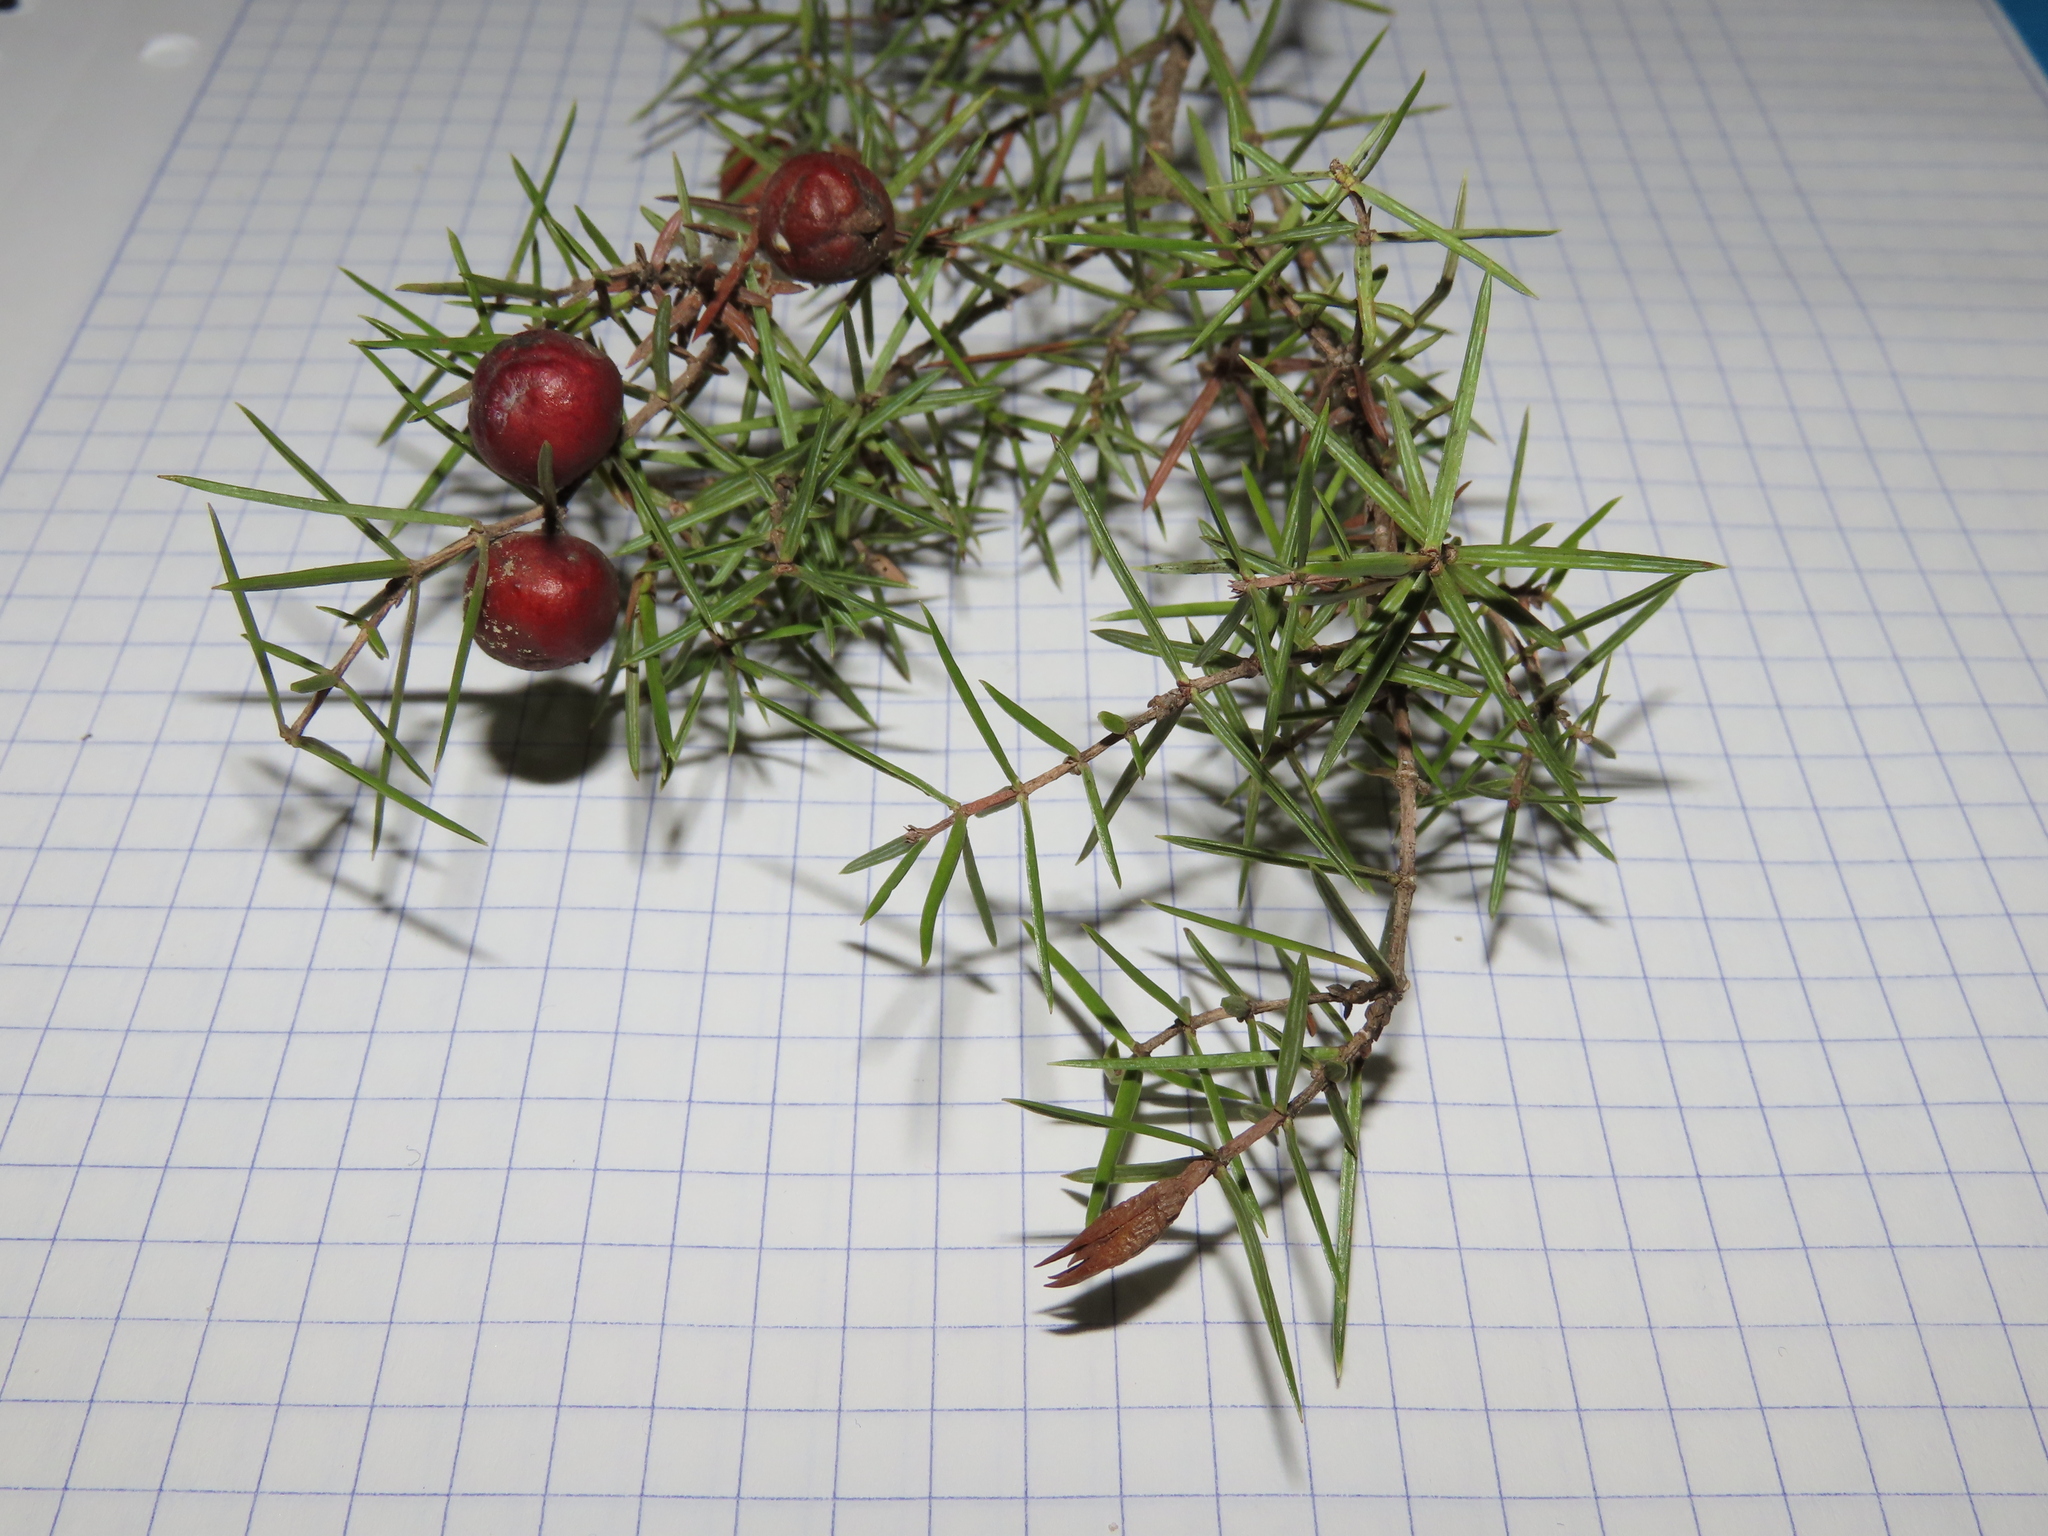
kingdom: Plantae
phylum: Tracheophyta
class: Pinopsida
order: Pinales
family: Cupressaceae
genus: Juniperus
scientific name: Juniperus oxycedrus
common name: Prickly juniper
